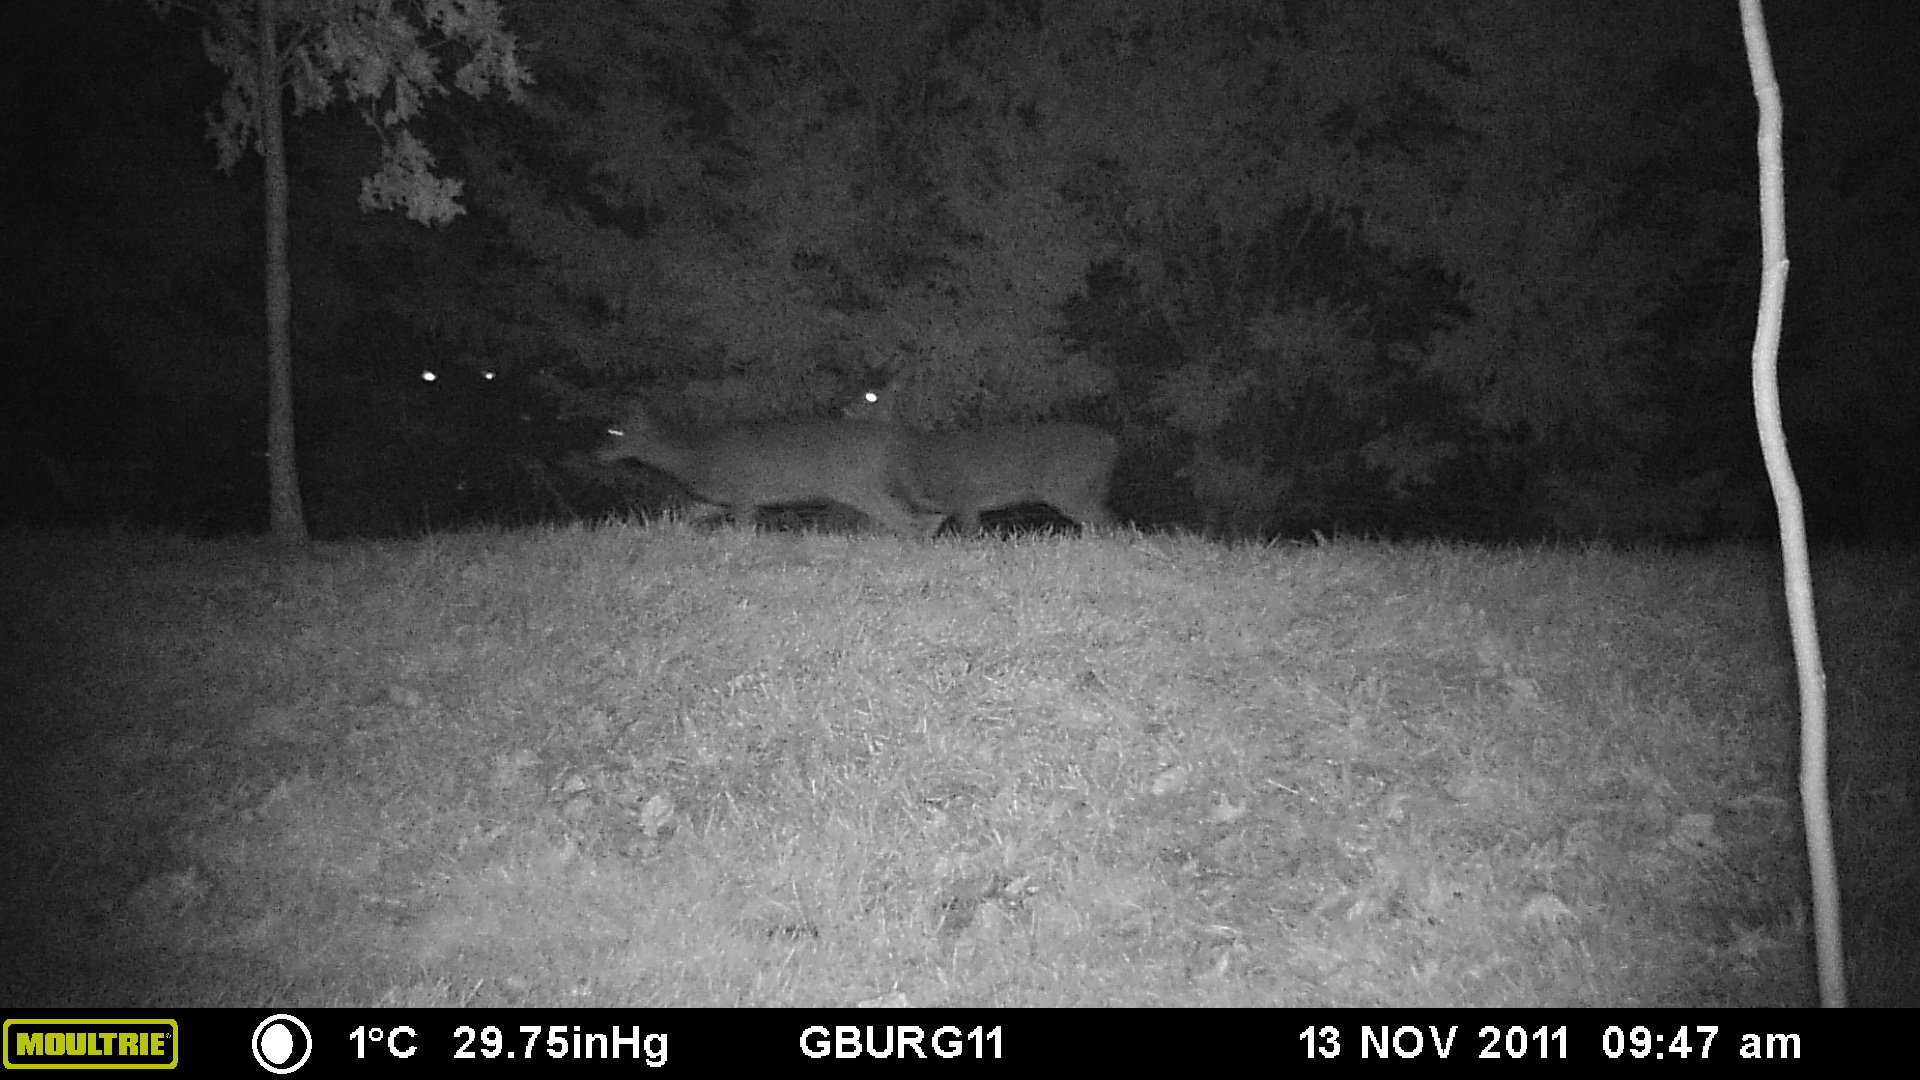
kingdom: Animalia
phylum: Chordata
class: Mammalia
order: Artiodactyla
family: Cervidae
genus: Odocoileus
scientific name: Odocoileus virginianus
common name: White-tailed deer
